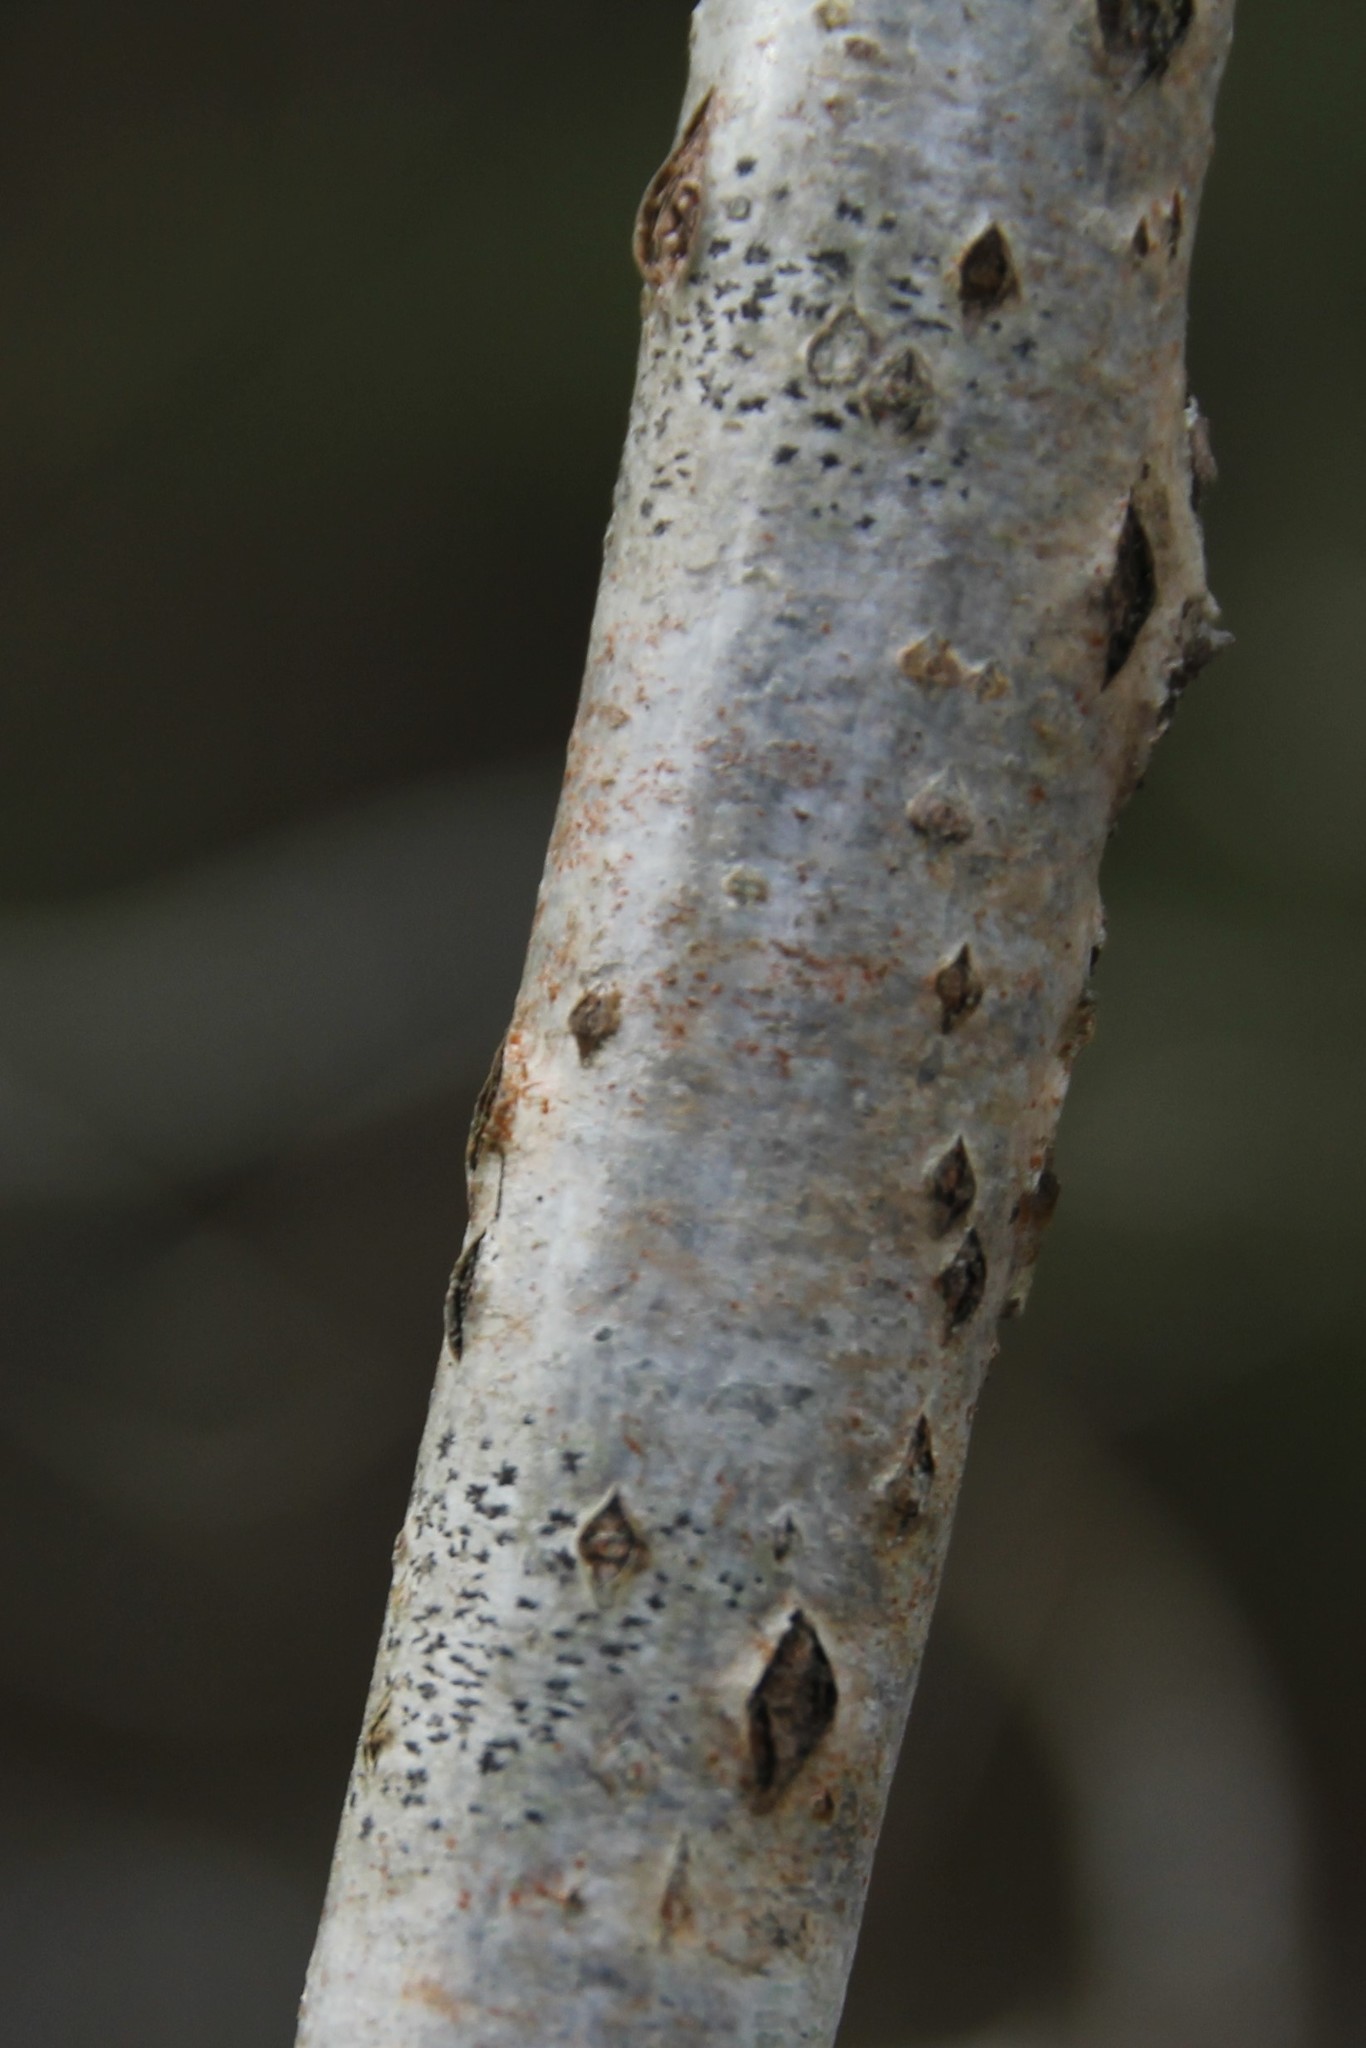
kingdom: Fungi
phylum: Ascomycota
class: Arthoniomycetes
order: Arthoniales
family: Arthoniaceae
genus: Arthonia
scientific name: Arthonia radiata
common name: Asterisk lichen
